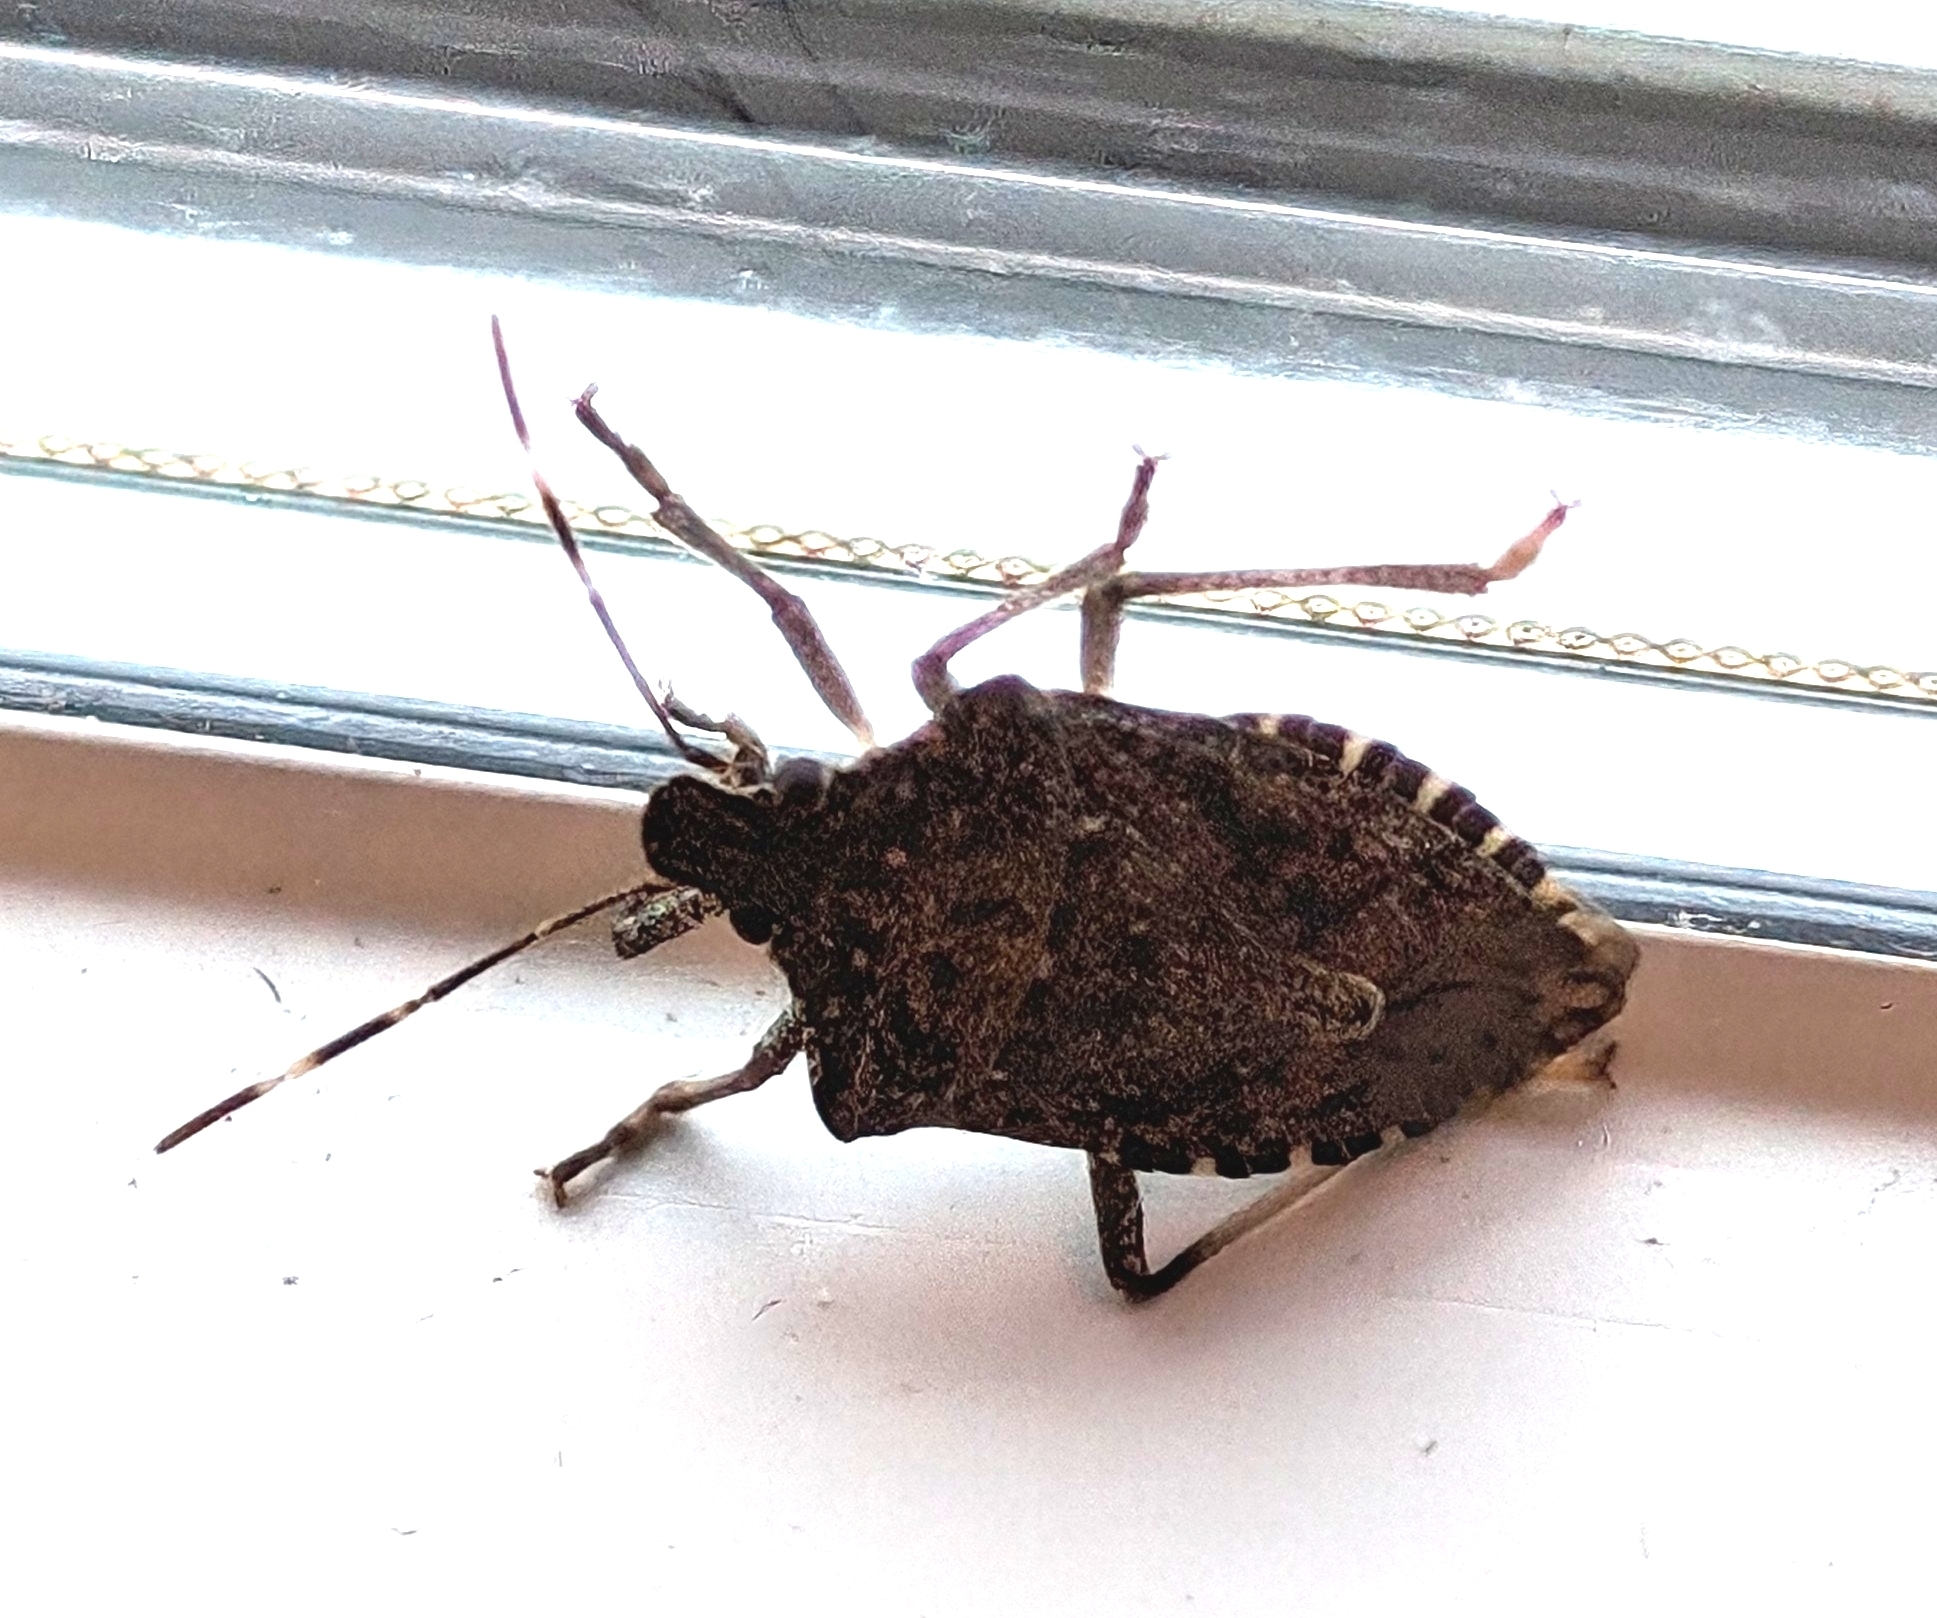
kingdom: Animalia
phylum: Arthropoda
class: Insecta
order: Hemiptera
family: Pentatomidae
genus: Halyomorpha
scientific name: Halyomorpha halys
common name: Brown marmorated stink bug
